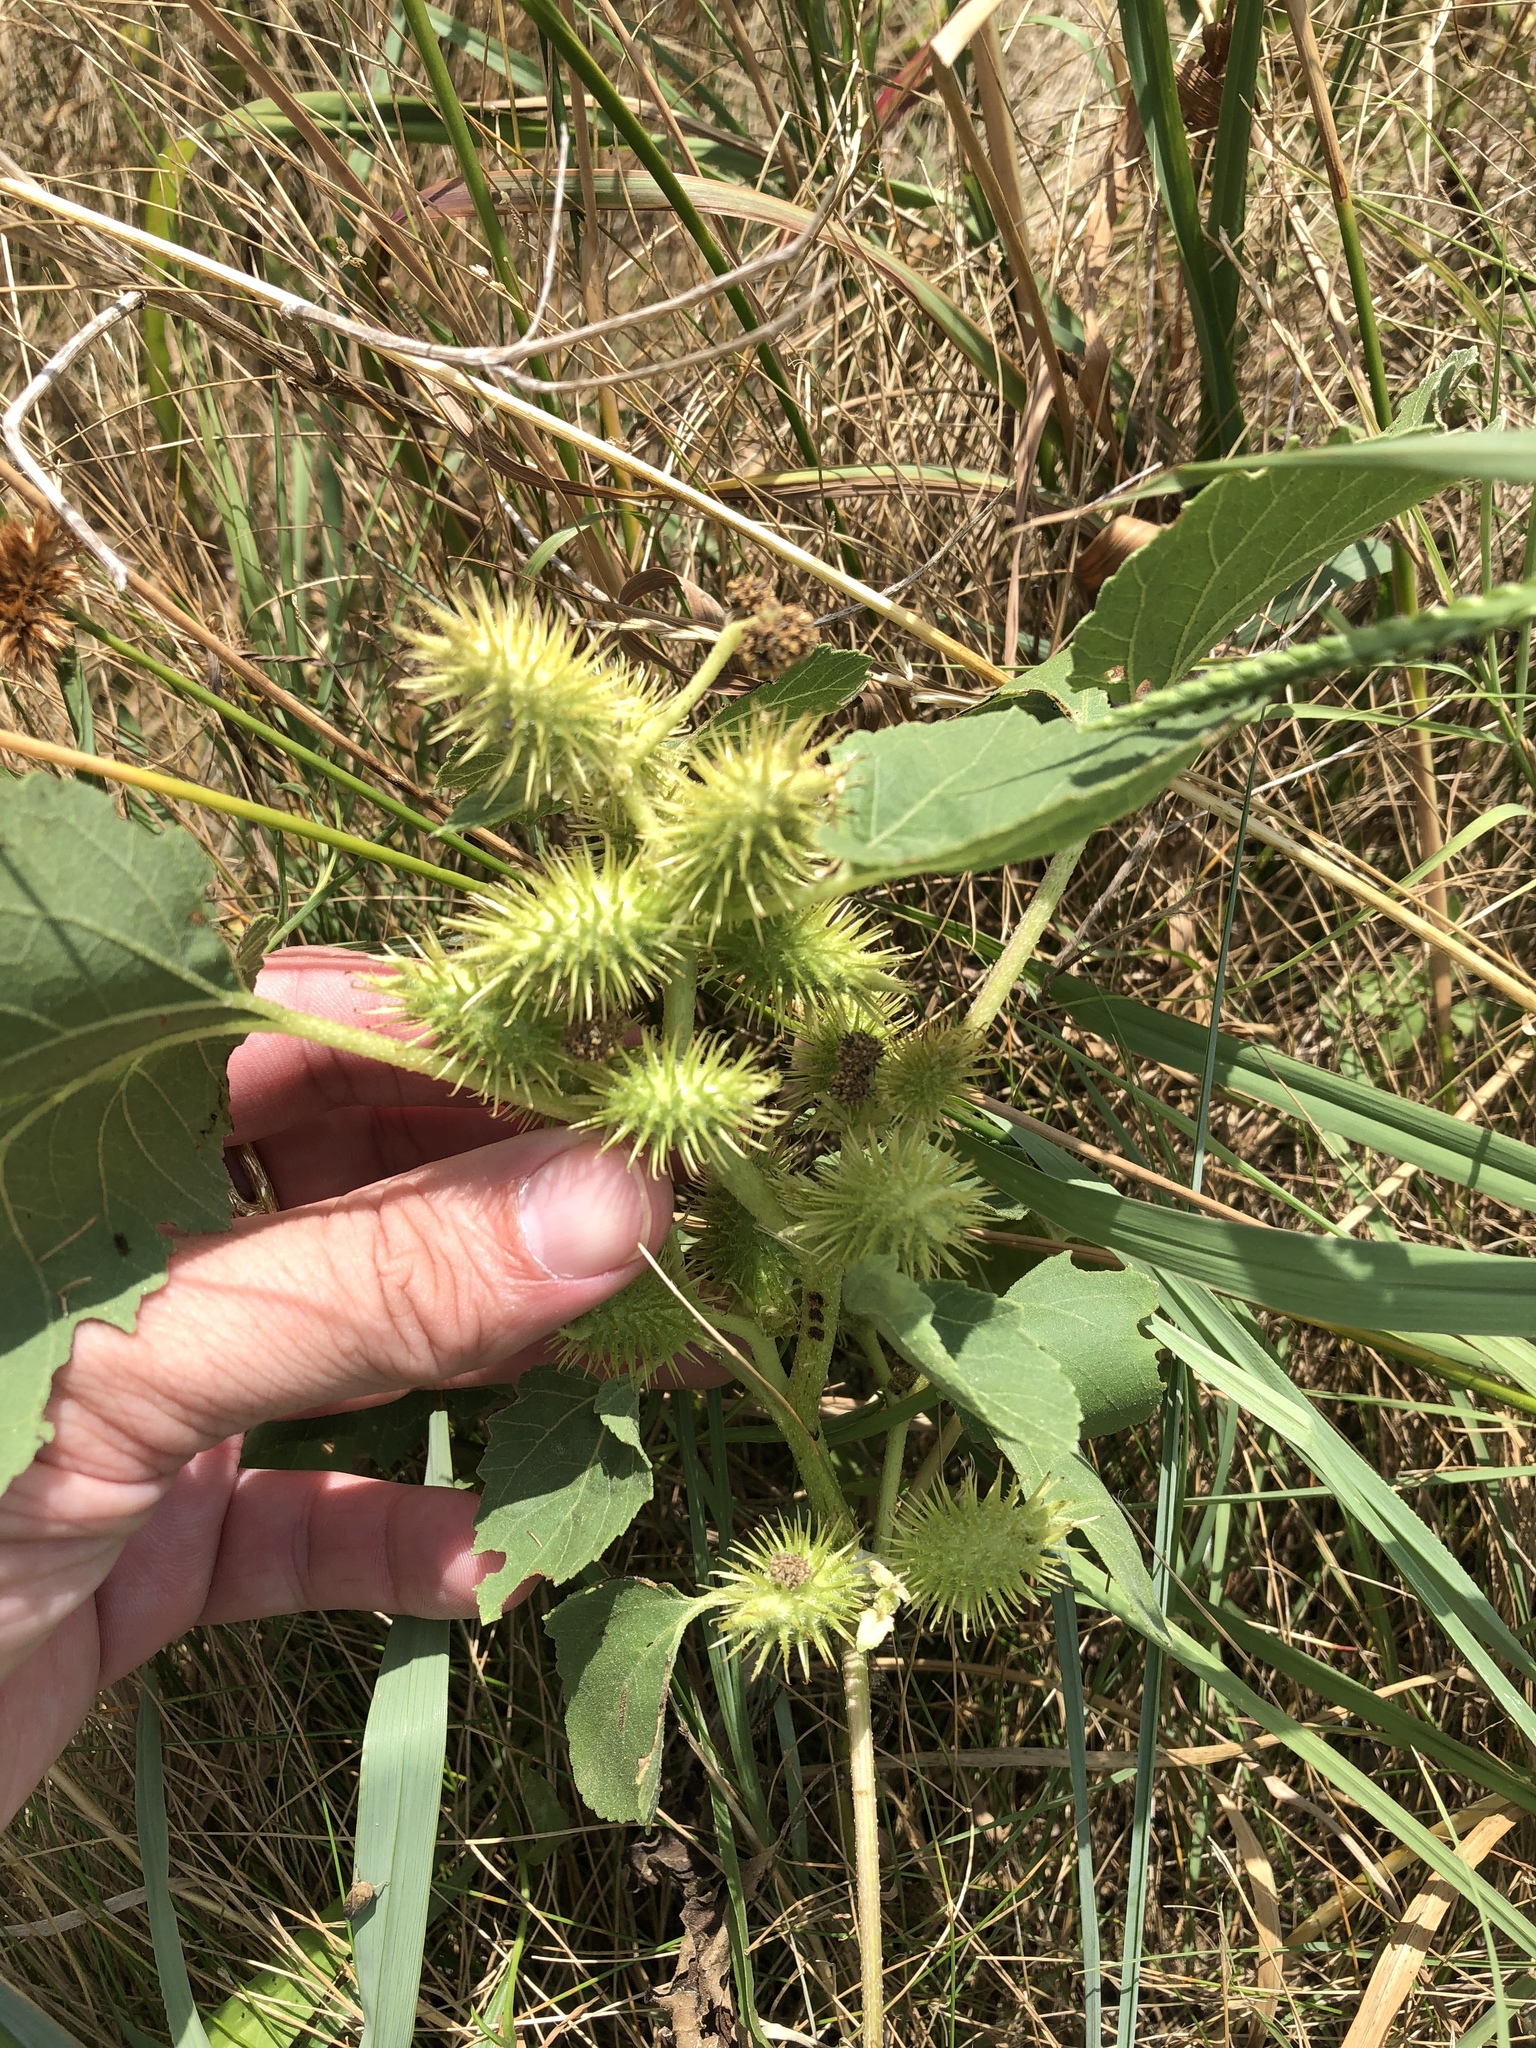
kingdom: Plantae
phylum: Tracheophyta
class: Magnoliopsida
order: Asterales
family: Asteraceae
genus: Xanthium
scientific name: Xanthium strumarium
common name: Rough cocklebur
